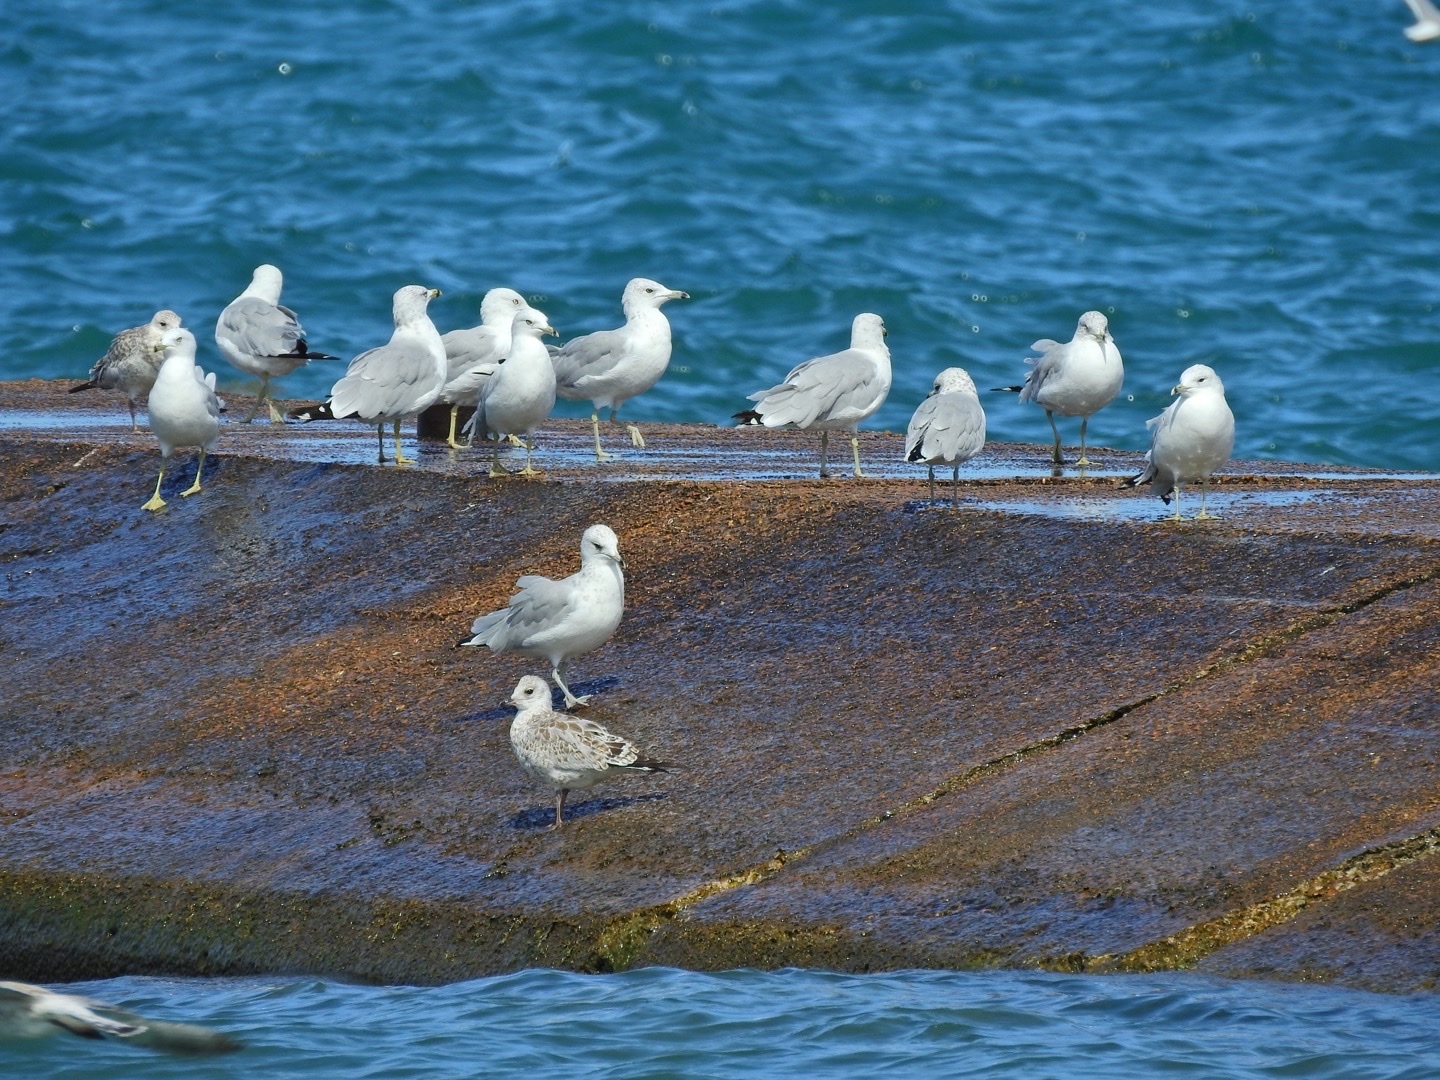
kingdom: Animalia
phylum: Chordata
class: Aves
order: Charadriiformes
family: Laridae
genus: Larus
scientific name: Larus delawarensis
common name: Ring-billed gull
